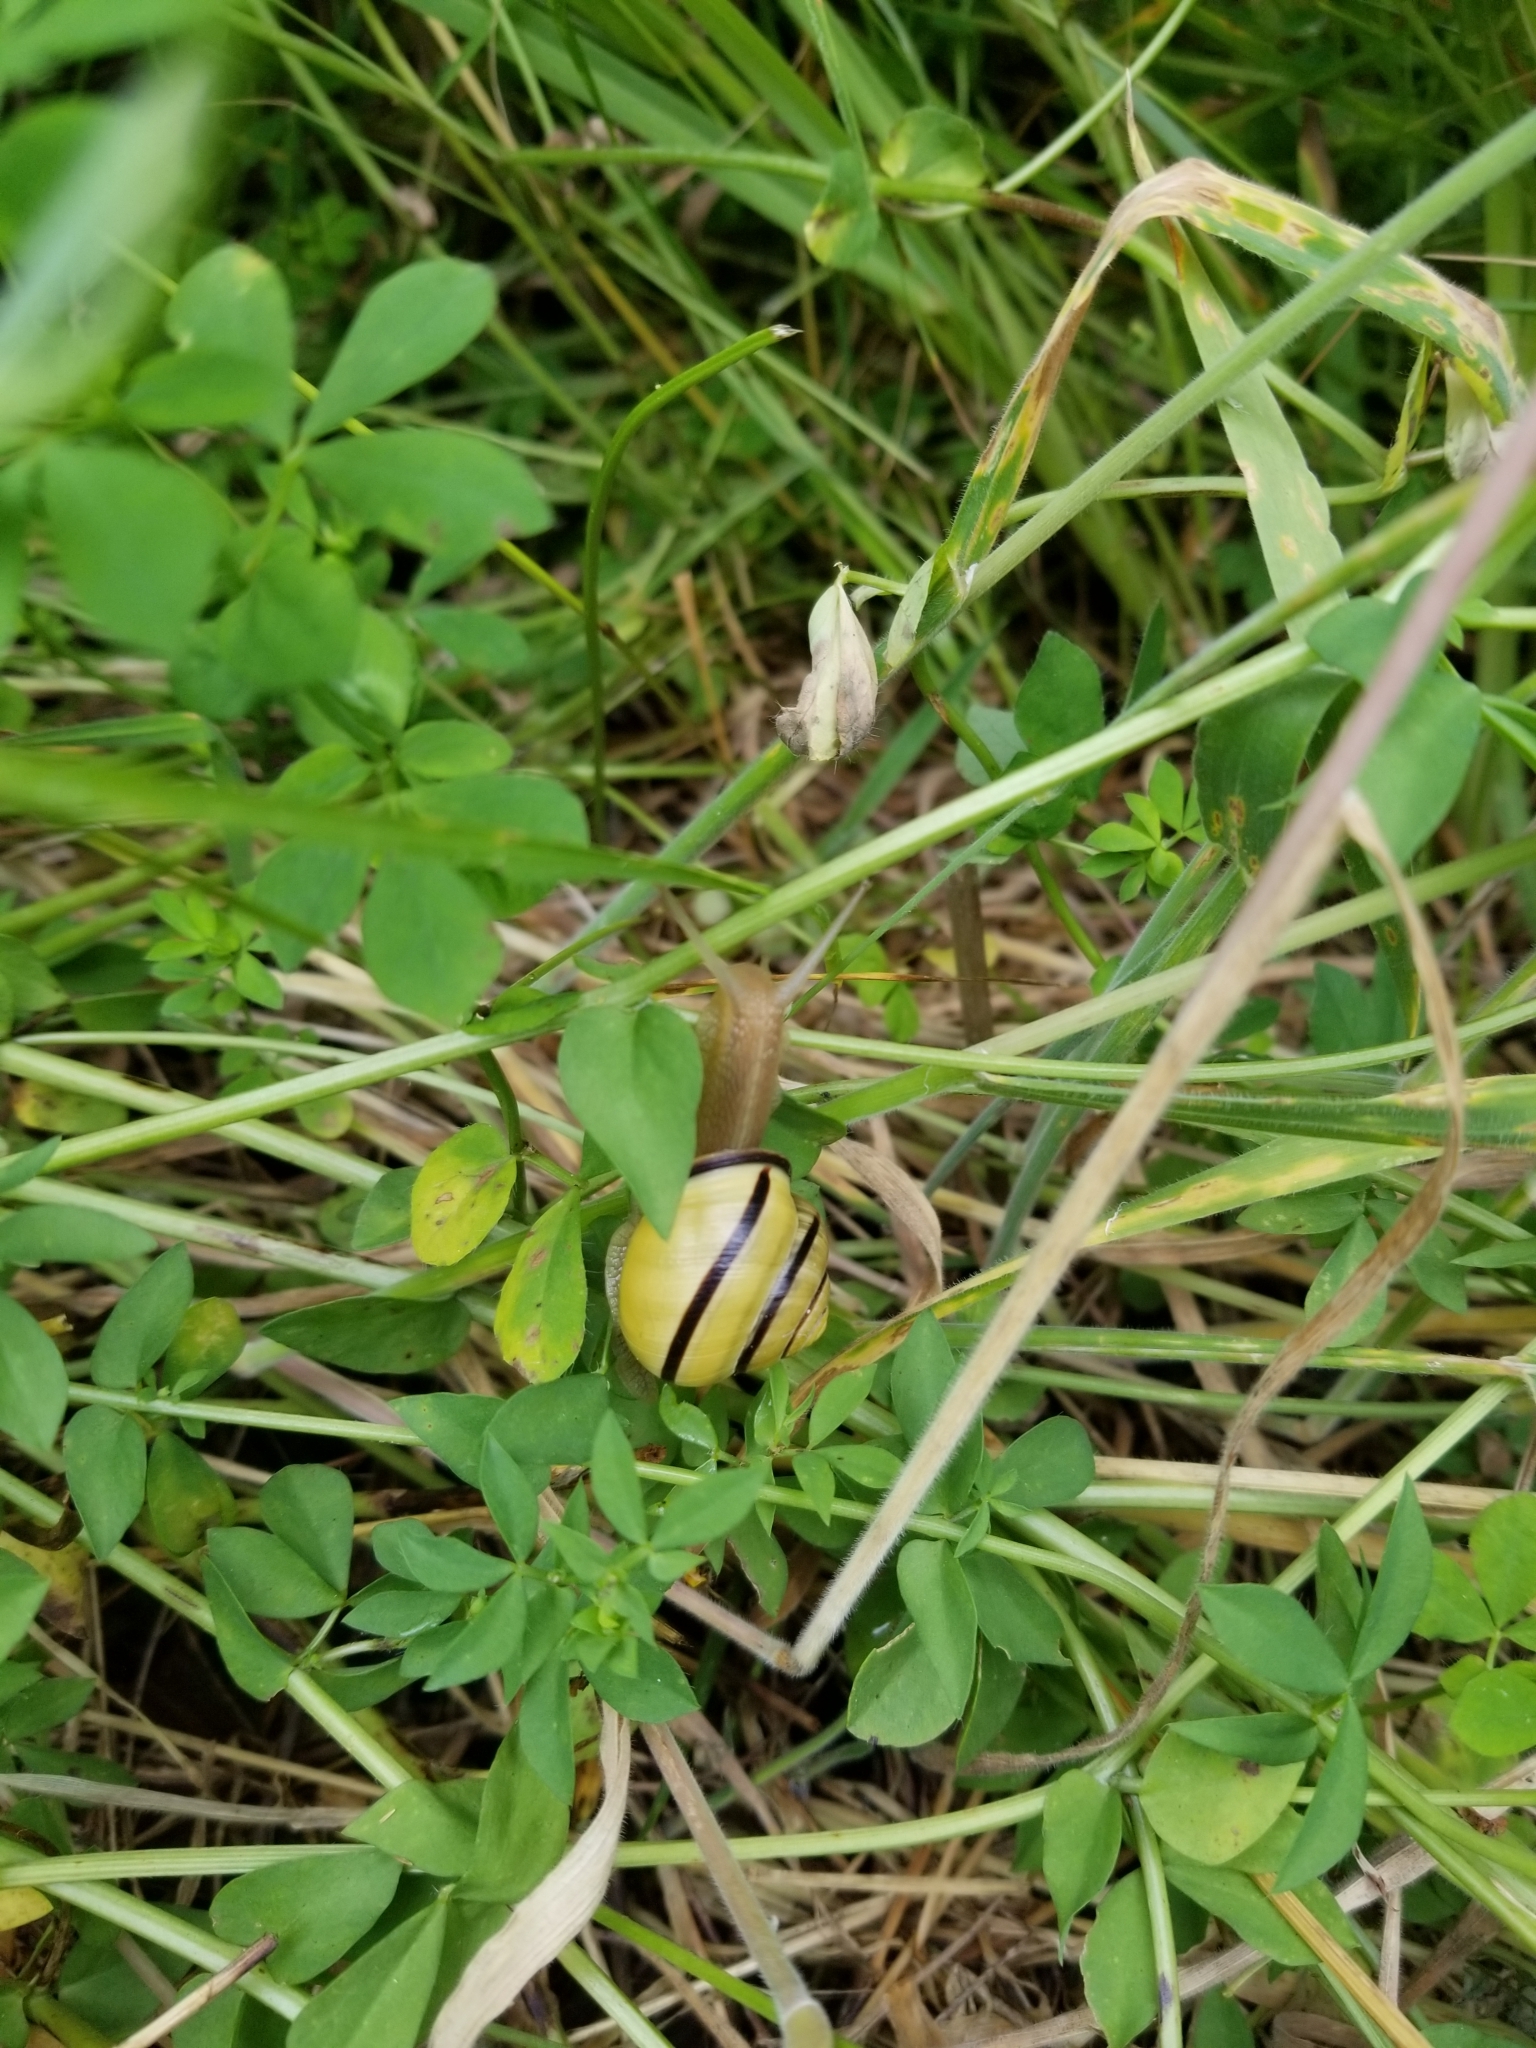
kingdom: Animalia
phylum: Mollusca
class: Gastropoda
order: Stylommatophora
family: Helicidae
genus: Cepaea
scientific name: Cepaea nemoralis
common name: Grovesnail
